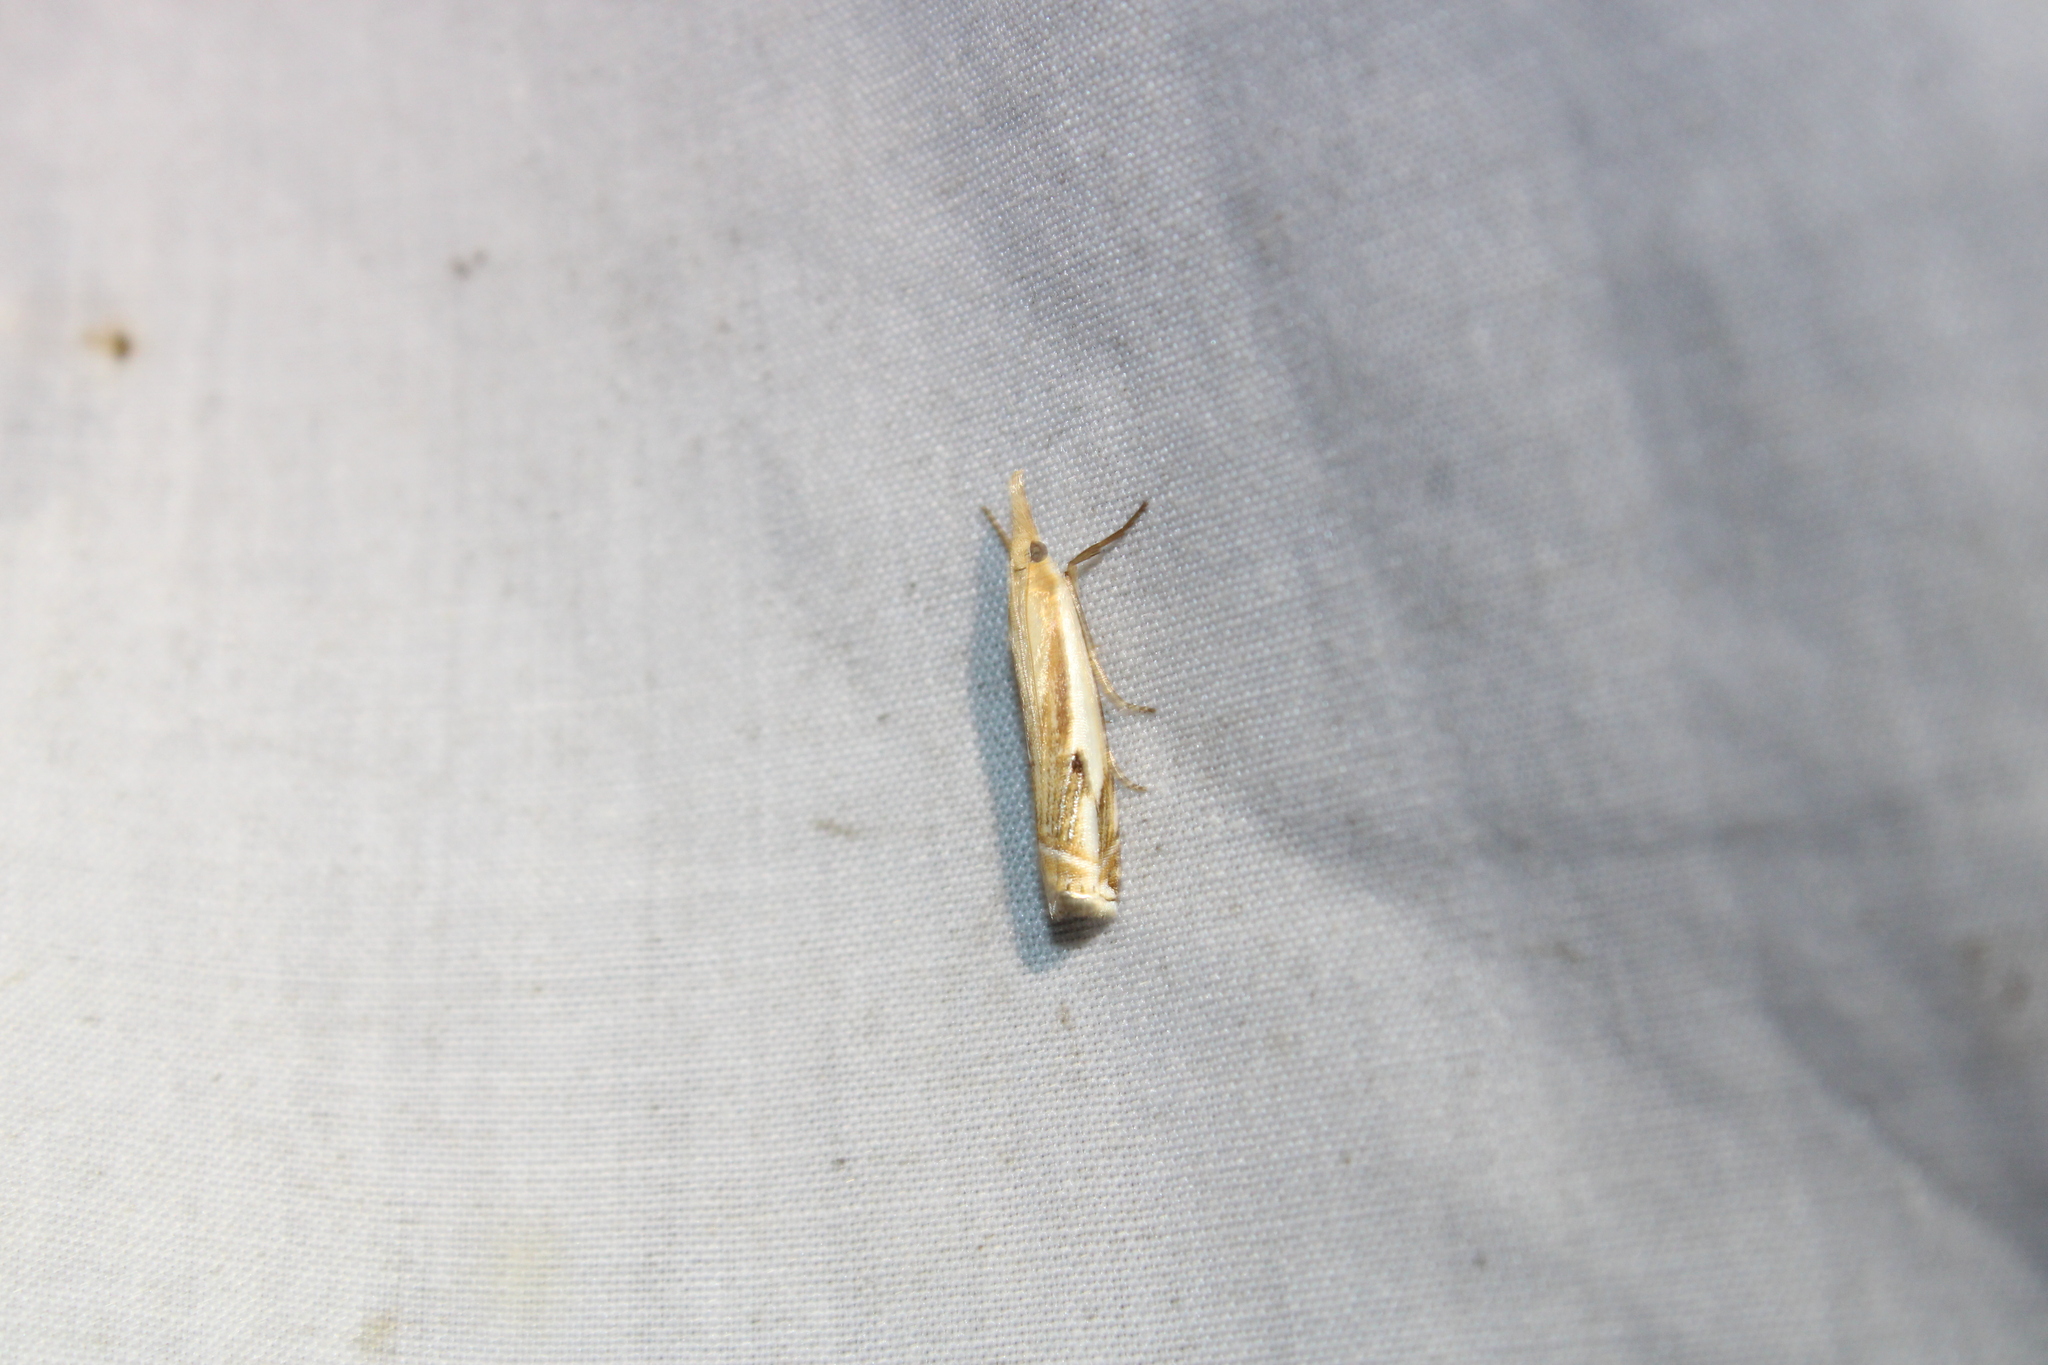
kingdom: Animalia
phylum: Arthropoda
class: Insecta
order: Lepidoptera
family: Crambidae
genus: Crambus
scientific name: Crambus agitatellus
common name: Double-banded grass-veneer
